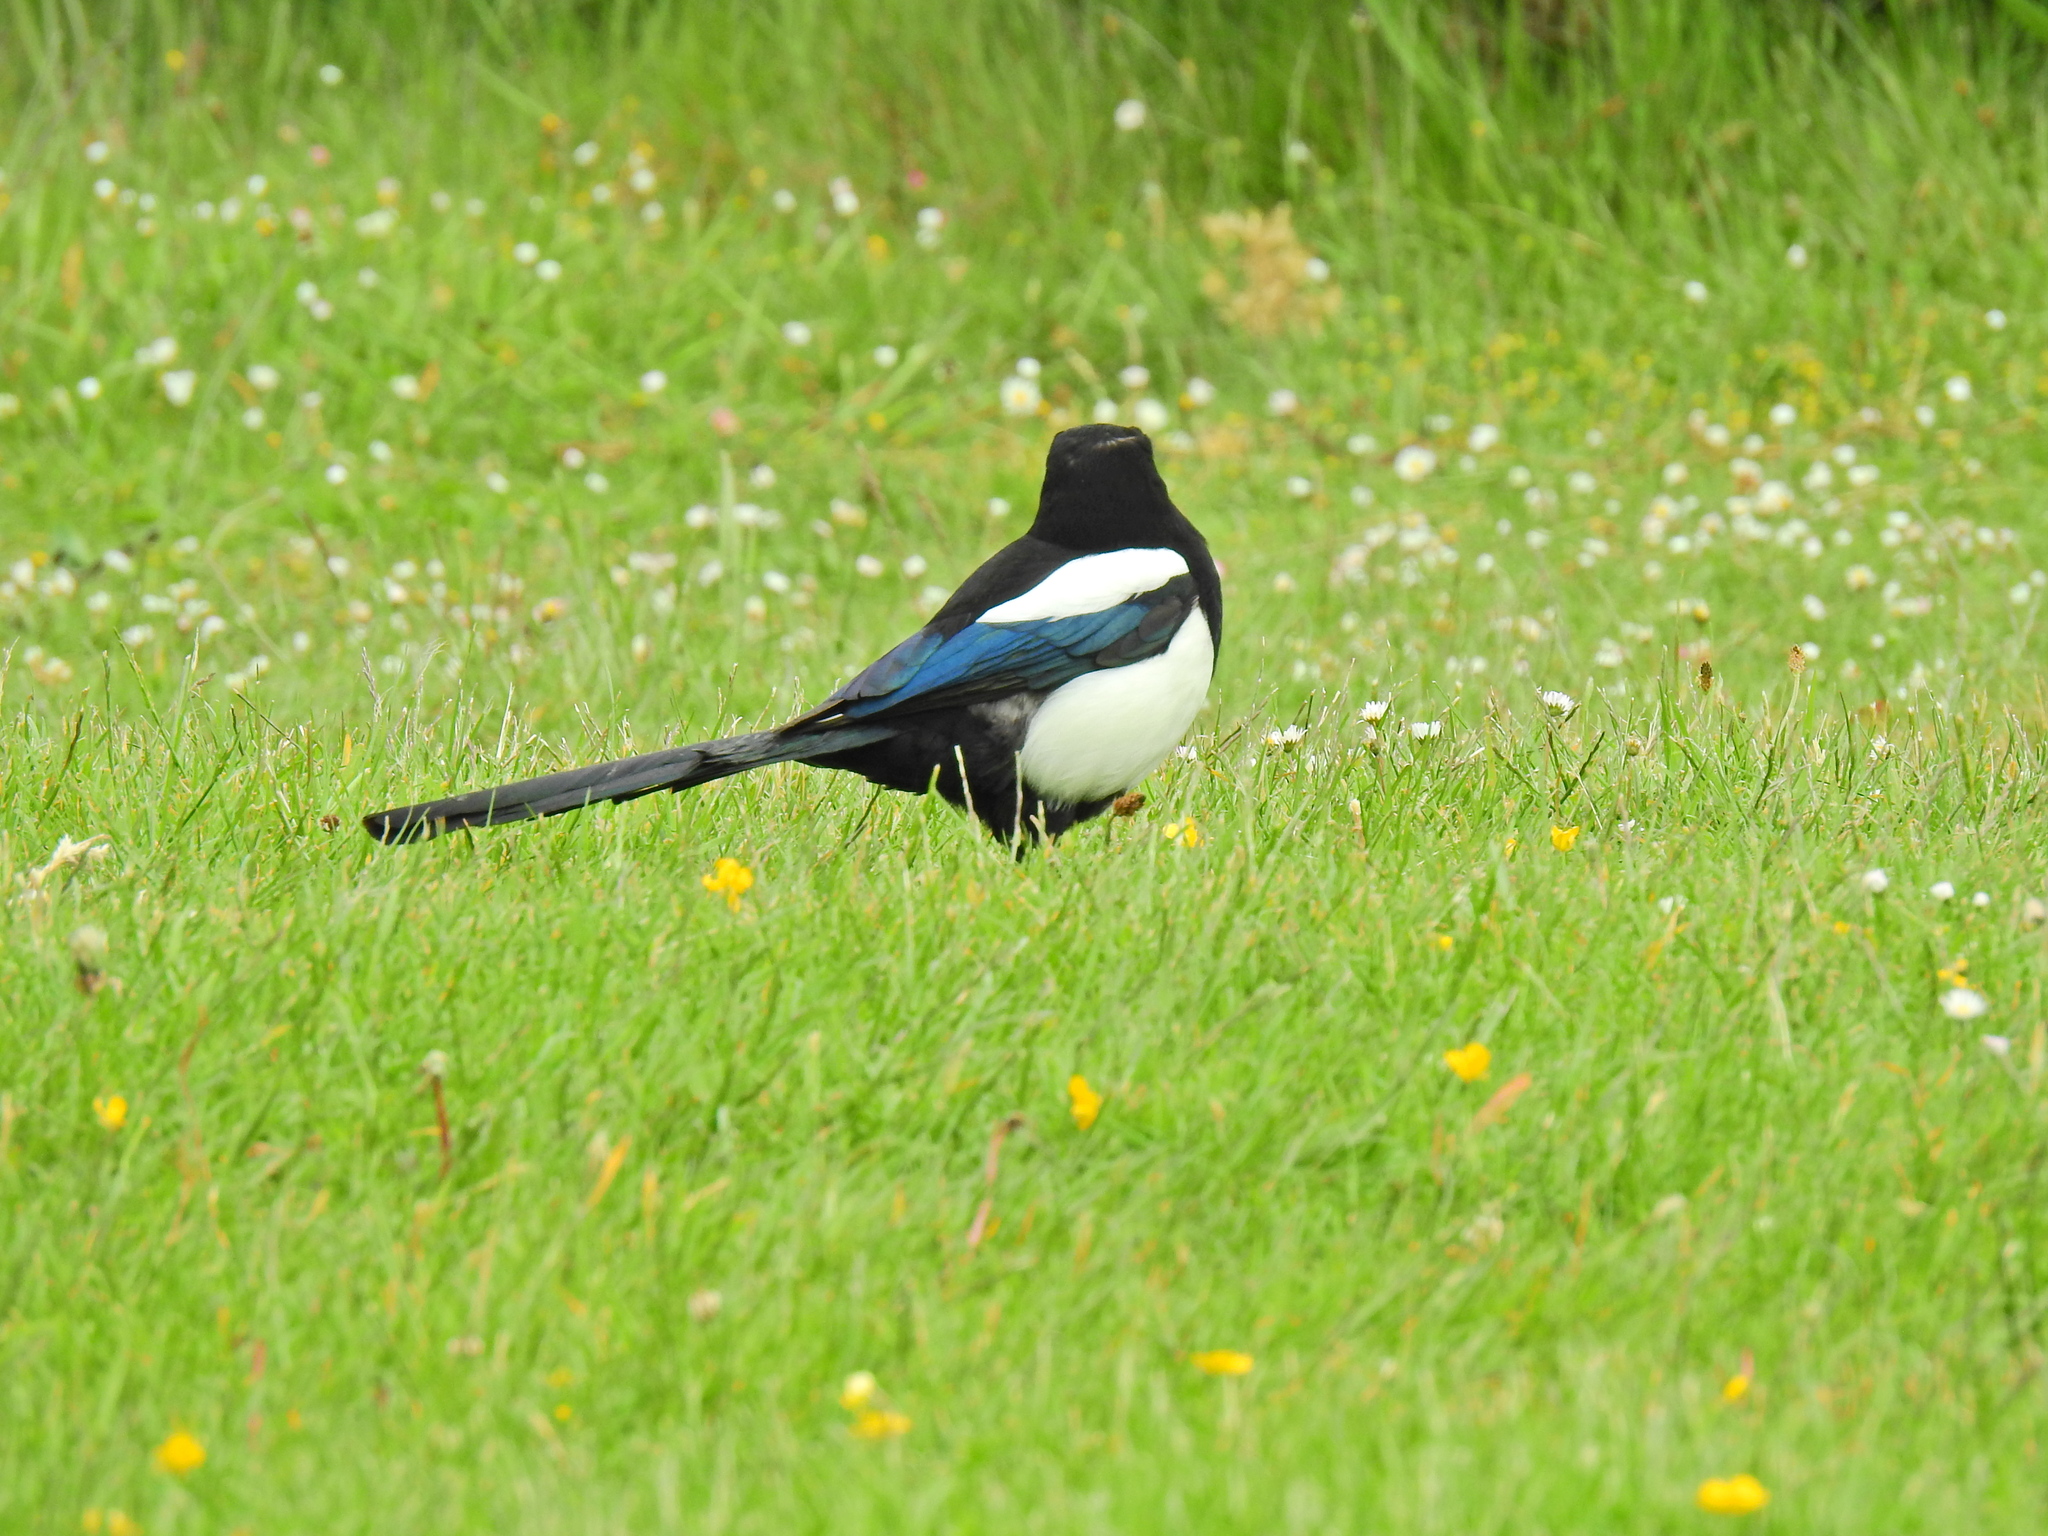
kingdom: Animalia
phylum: Chordata
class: Aves
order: Passeriformes
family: Corvidae
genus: Pica
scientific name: Pica pica
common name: Eurasian magpie
